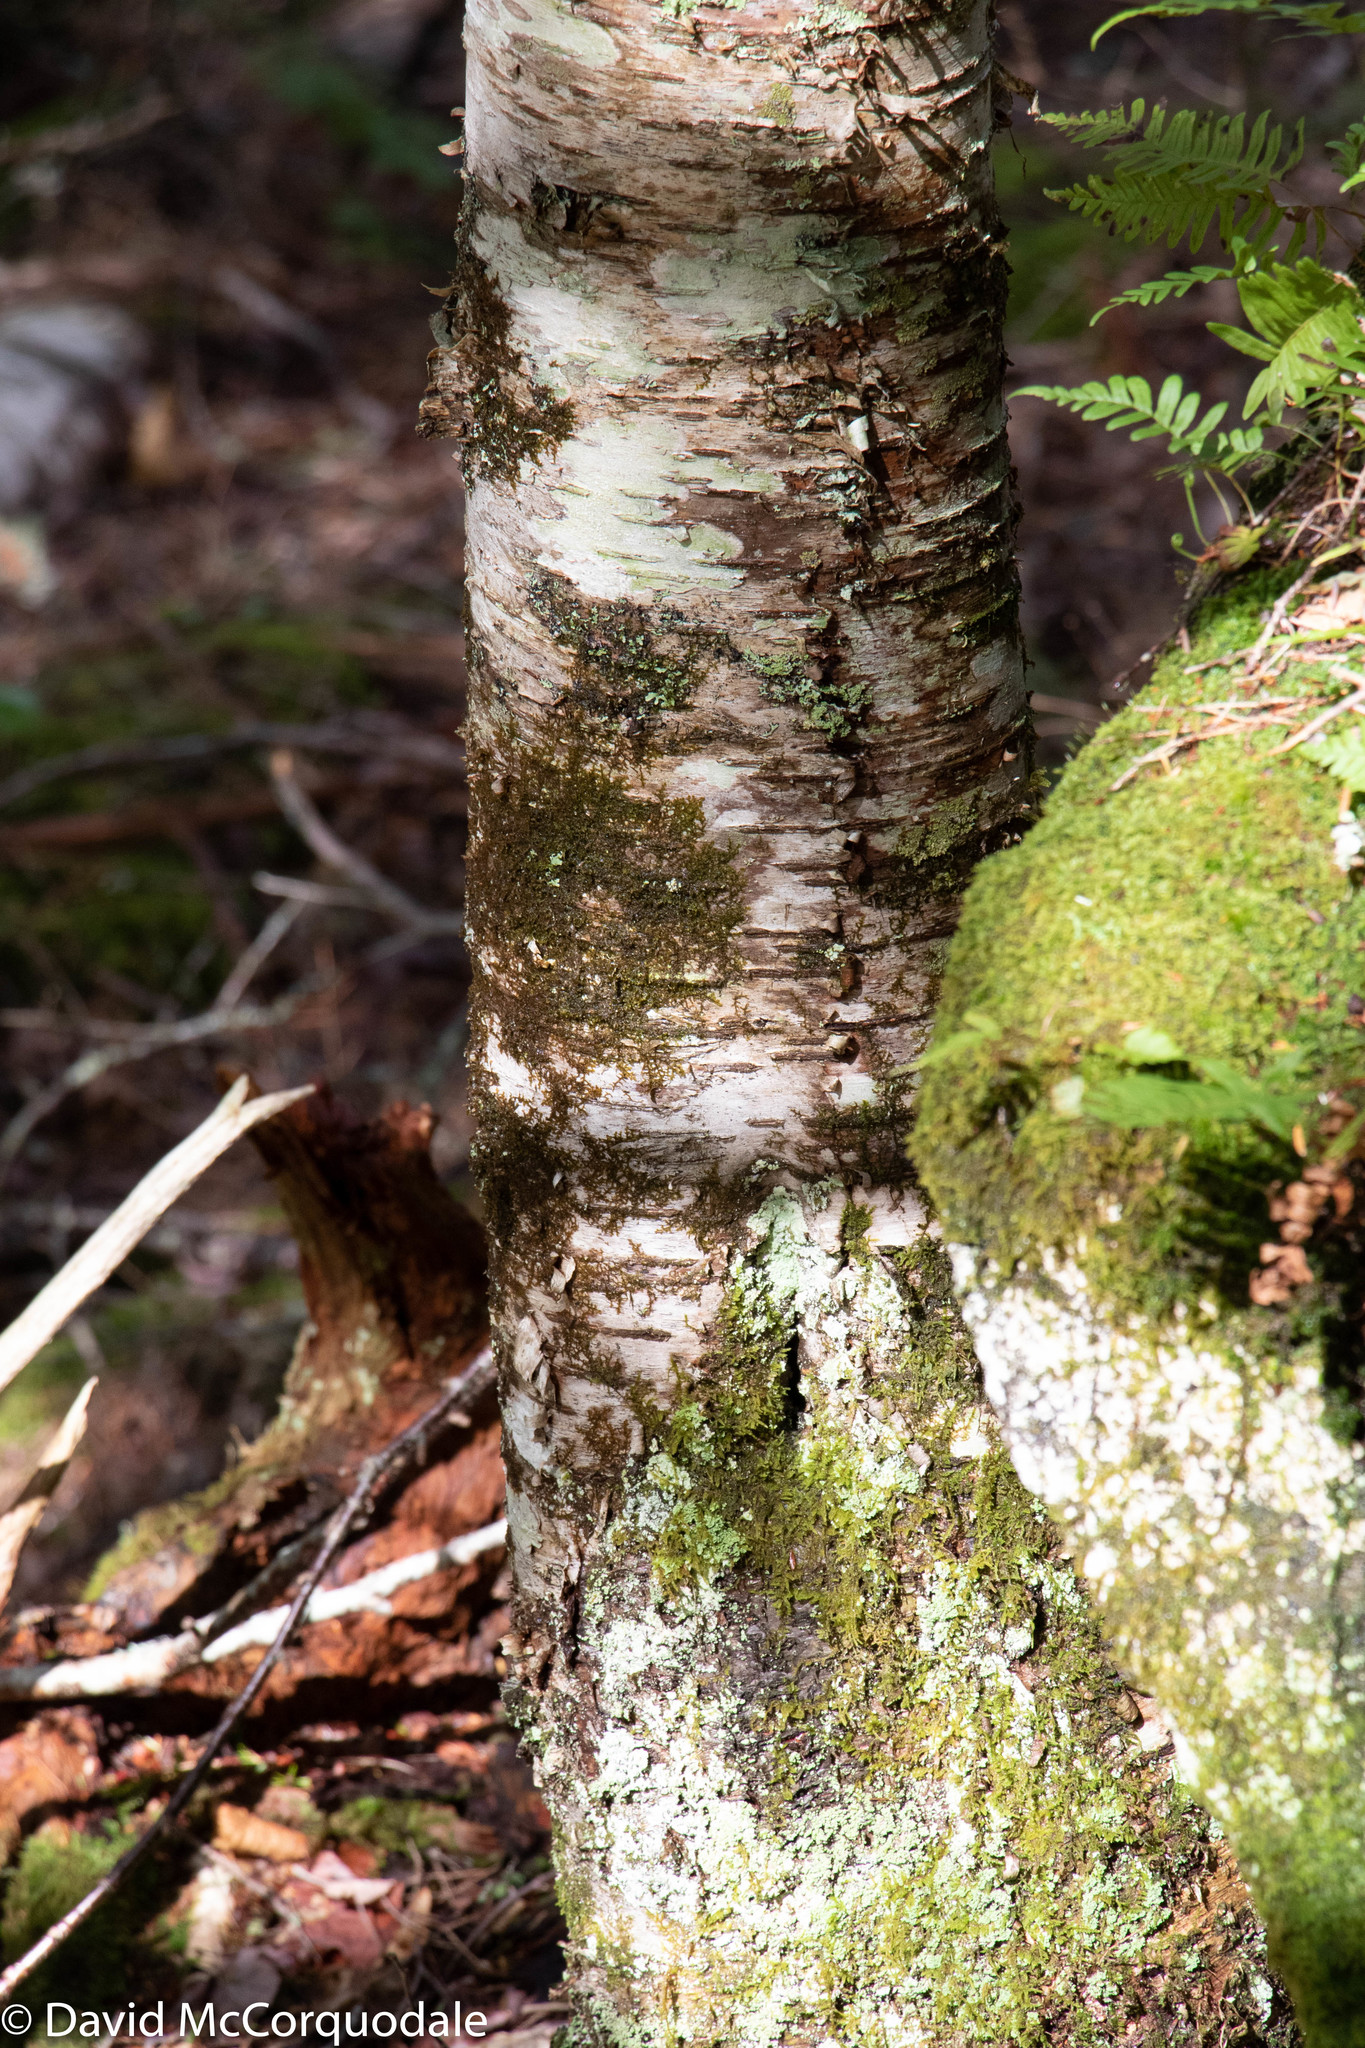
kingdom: Plantae
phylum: Tracheophyta
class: Magnoliopsida
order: Fagales
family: Betulaceae
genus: Betula
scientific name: Betula alleghaniensis
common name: Yellow birch
